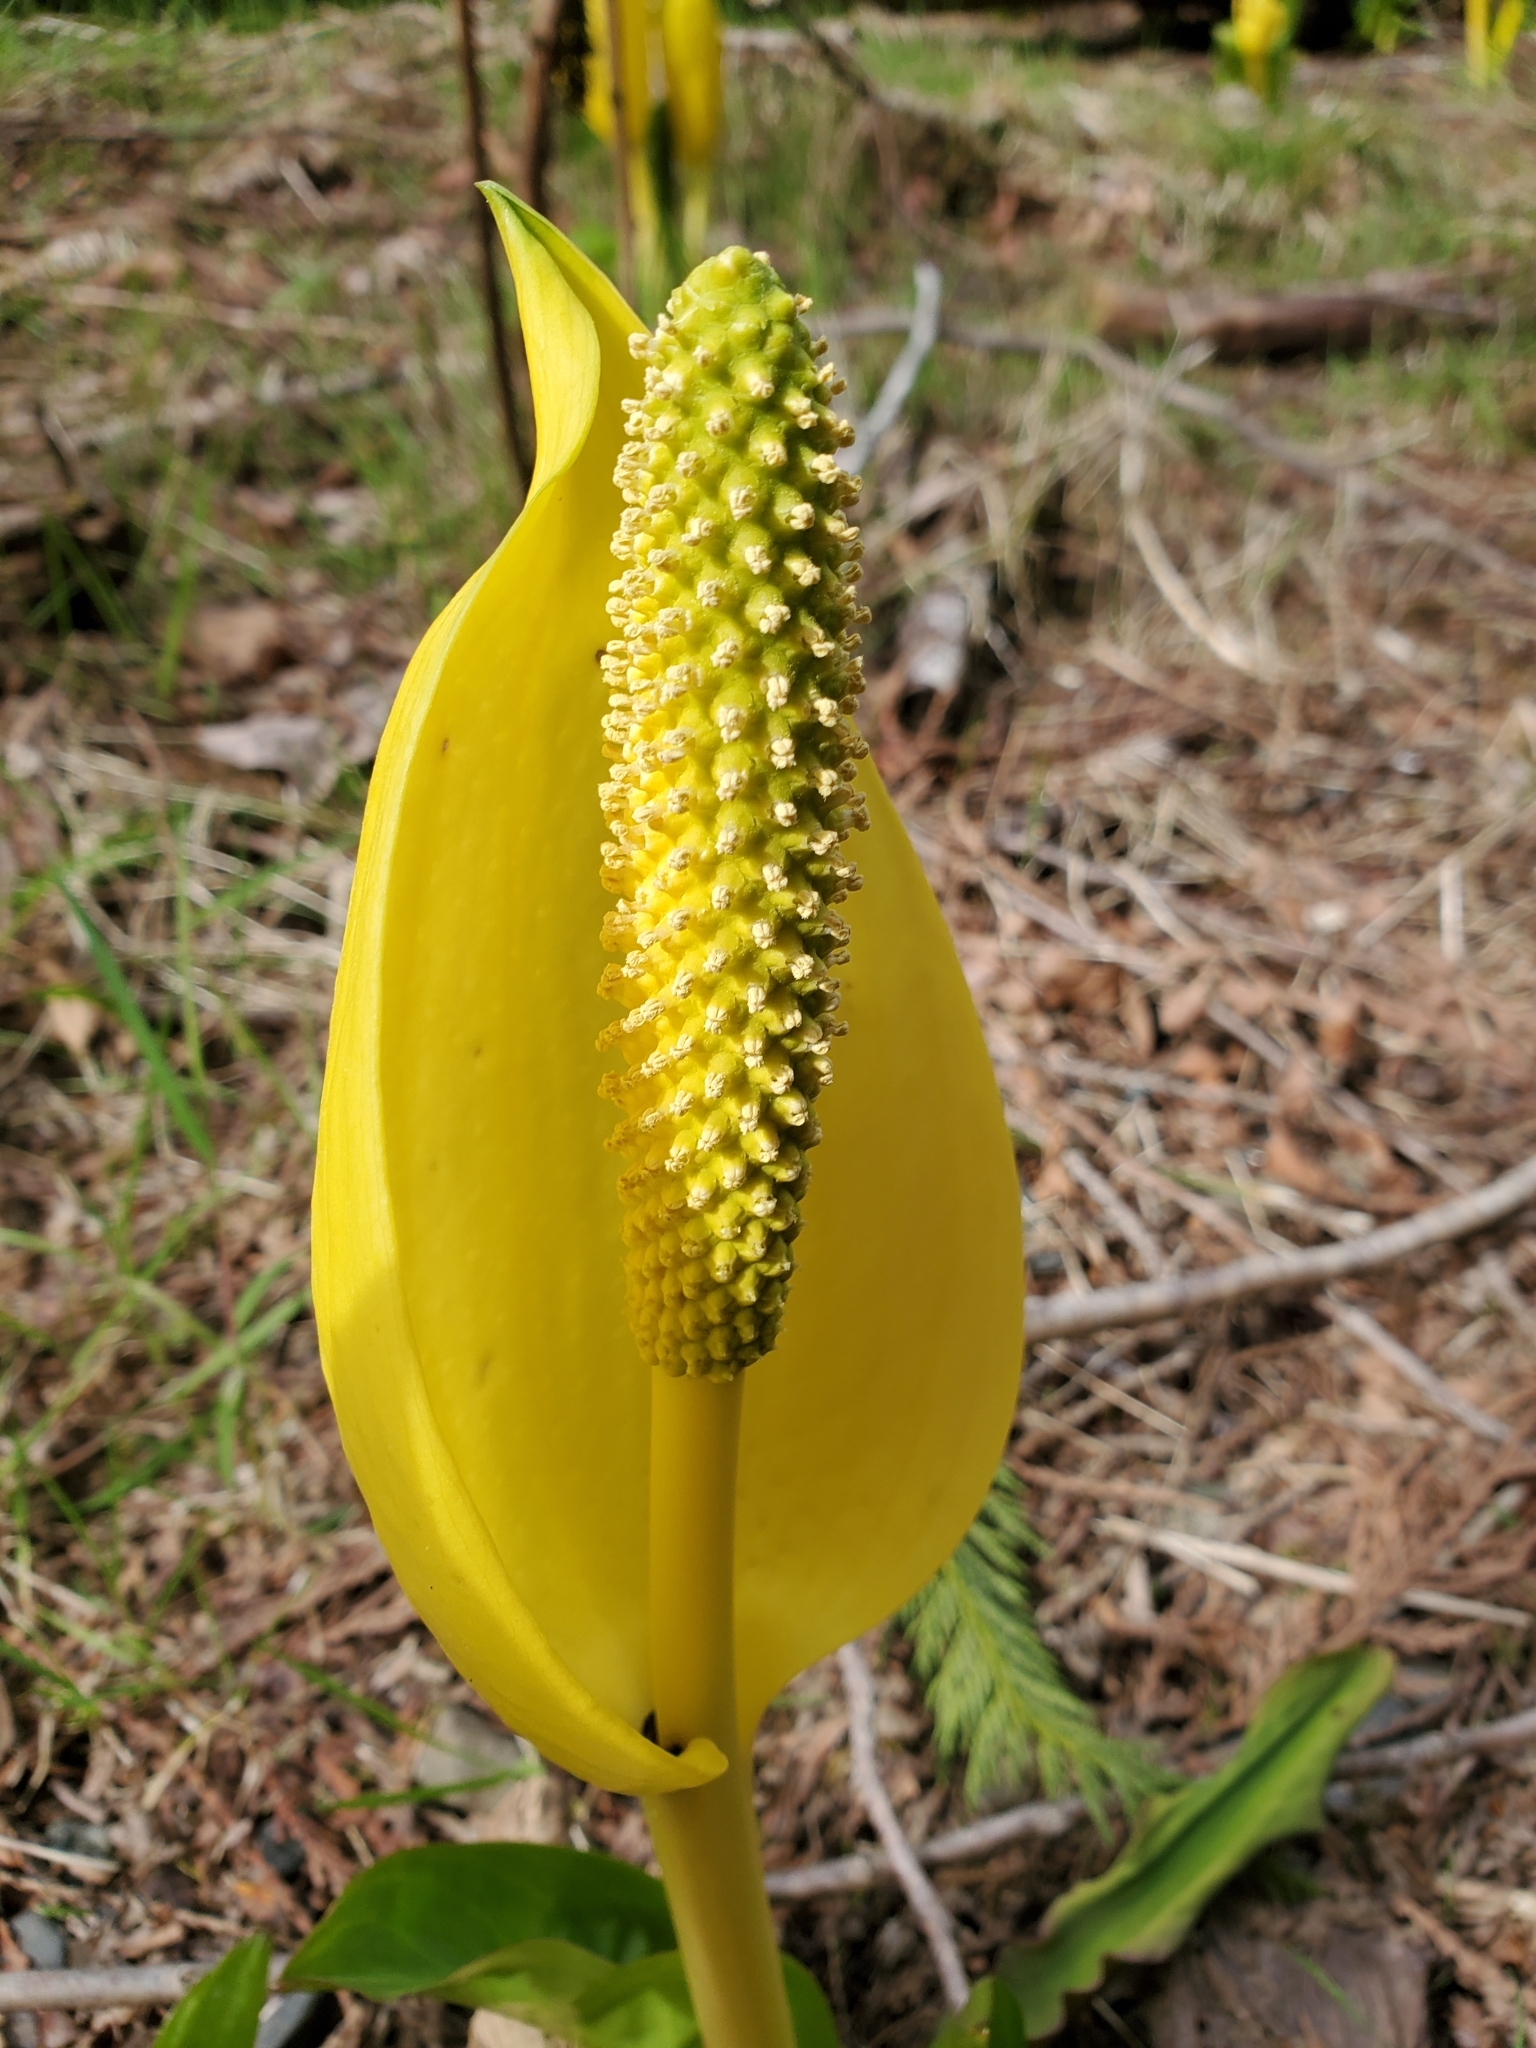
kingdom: Plantae
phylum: Tracheophyta
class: Liliopsida
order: Alismatales
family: Araceae
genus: Lysichiton
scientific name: Lysichiton americanus
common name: American skunk cabbage
